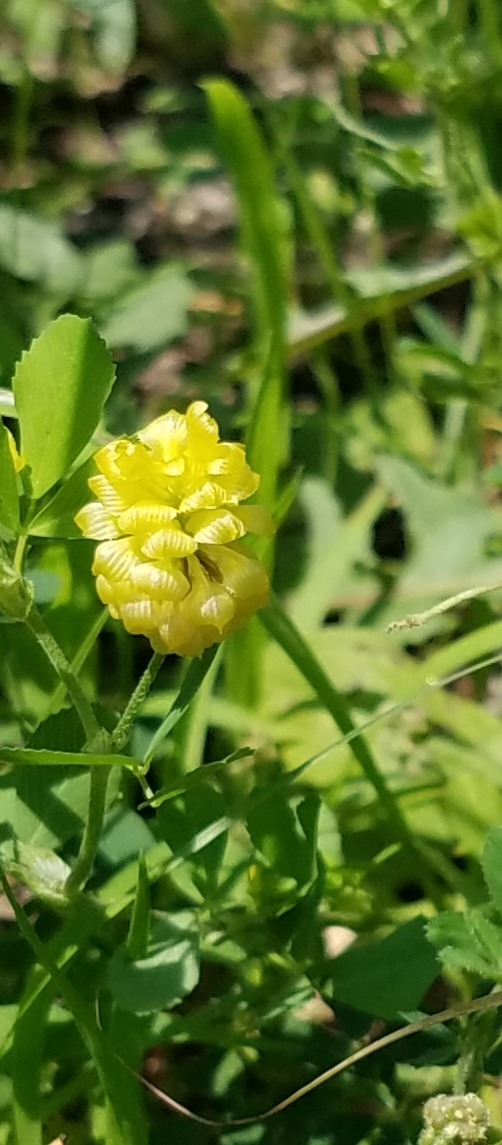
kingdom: Plantae
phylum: Tracheophyta
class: Magnoliopsida
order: Fabales
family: Fabaceae
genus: Trifolium
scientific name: Trifolium campestre
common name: Field clover
